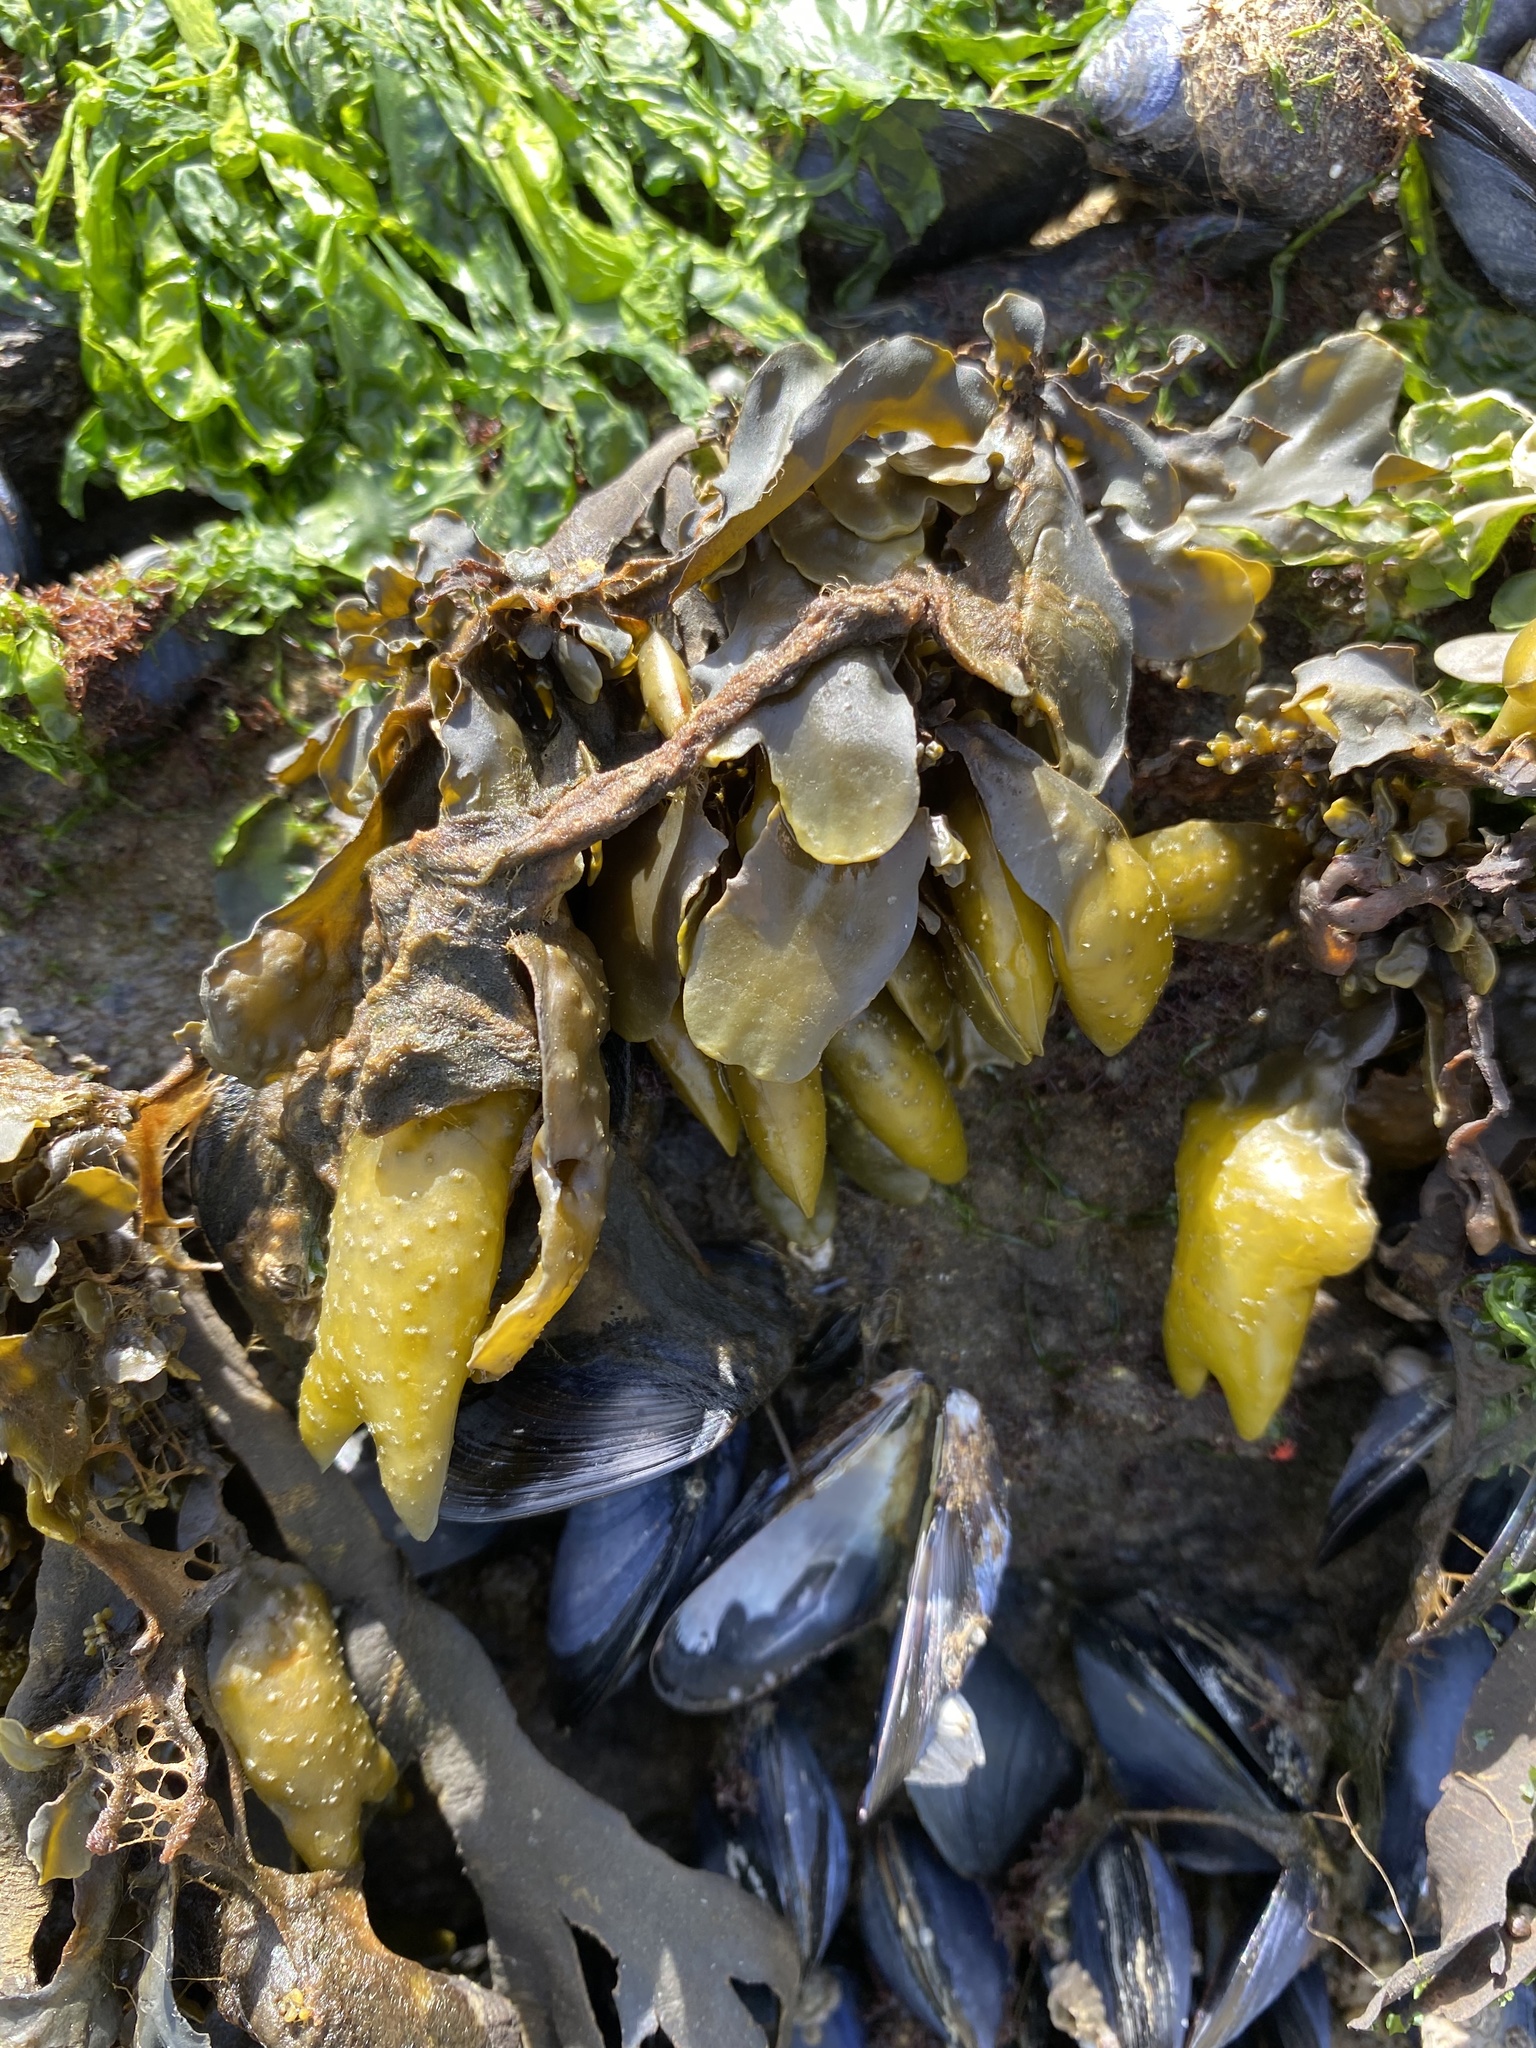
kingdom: Chromista
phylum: Ochrophyta
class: Phaeophyceae
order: Fucales
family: Fucaceae
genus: Fucus
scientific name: Fucus distichus
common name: Rockweed
